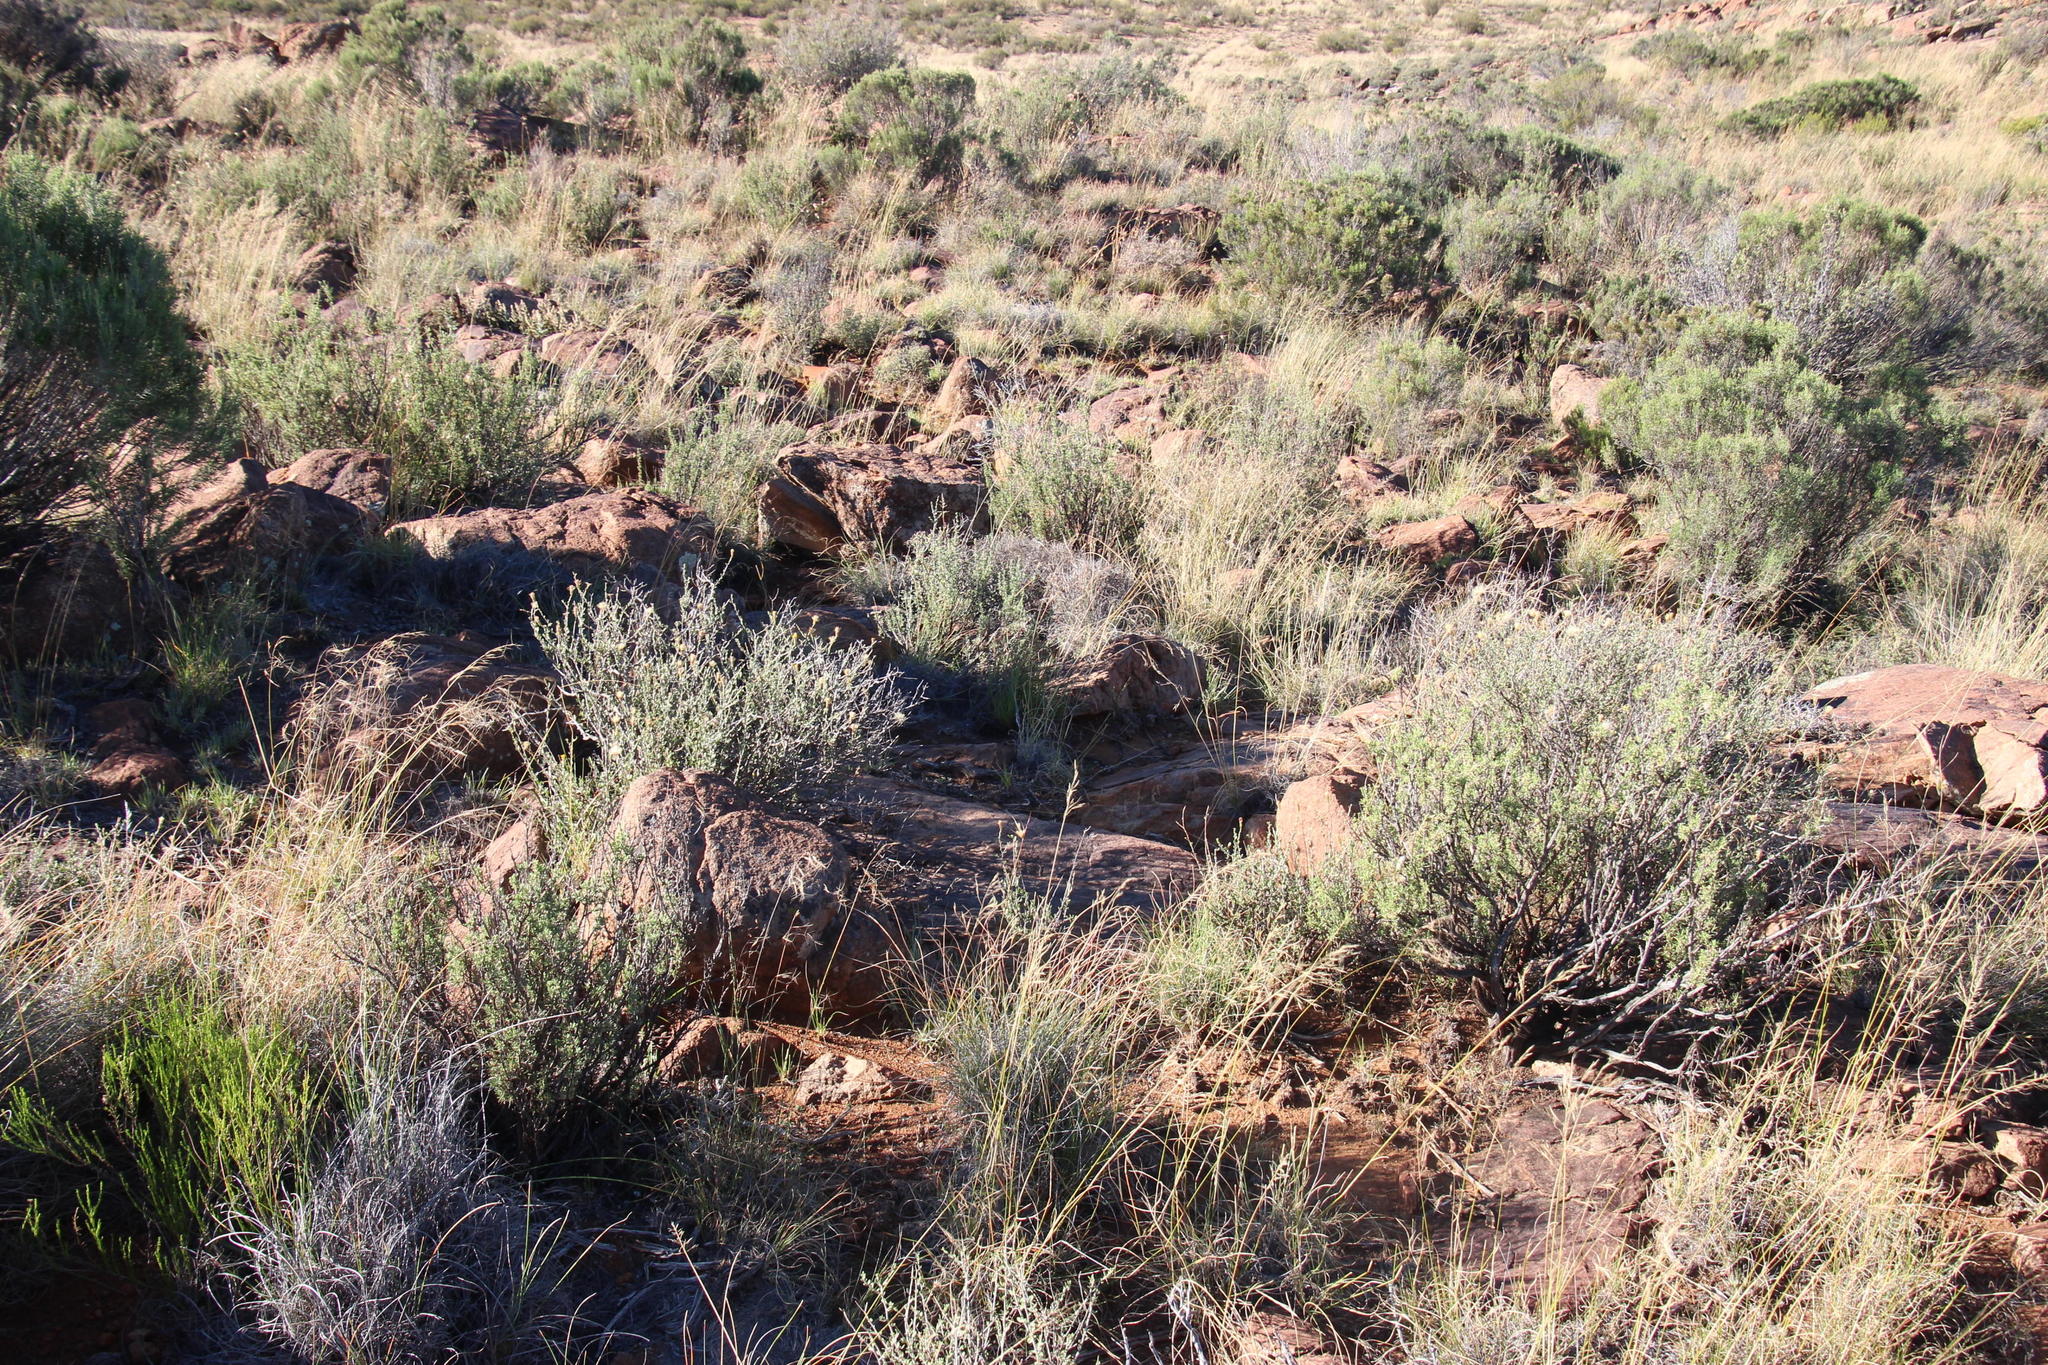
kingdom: Plantae
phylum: Tracheophyta
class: Magnoliopsida
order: Asterales
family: Asteraceae
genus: Pegolettia
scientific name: Pegolettia retrofracta
